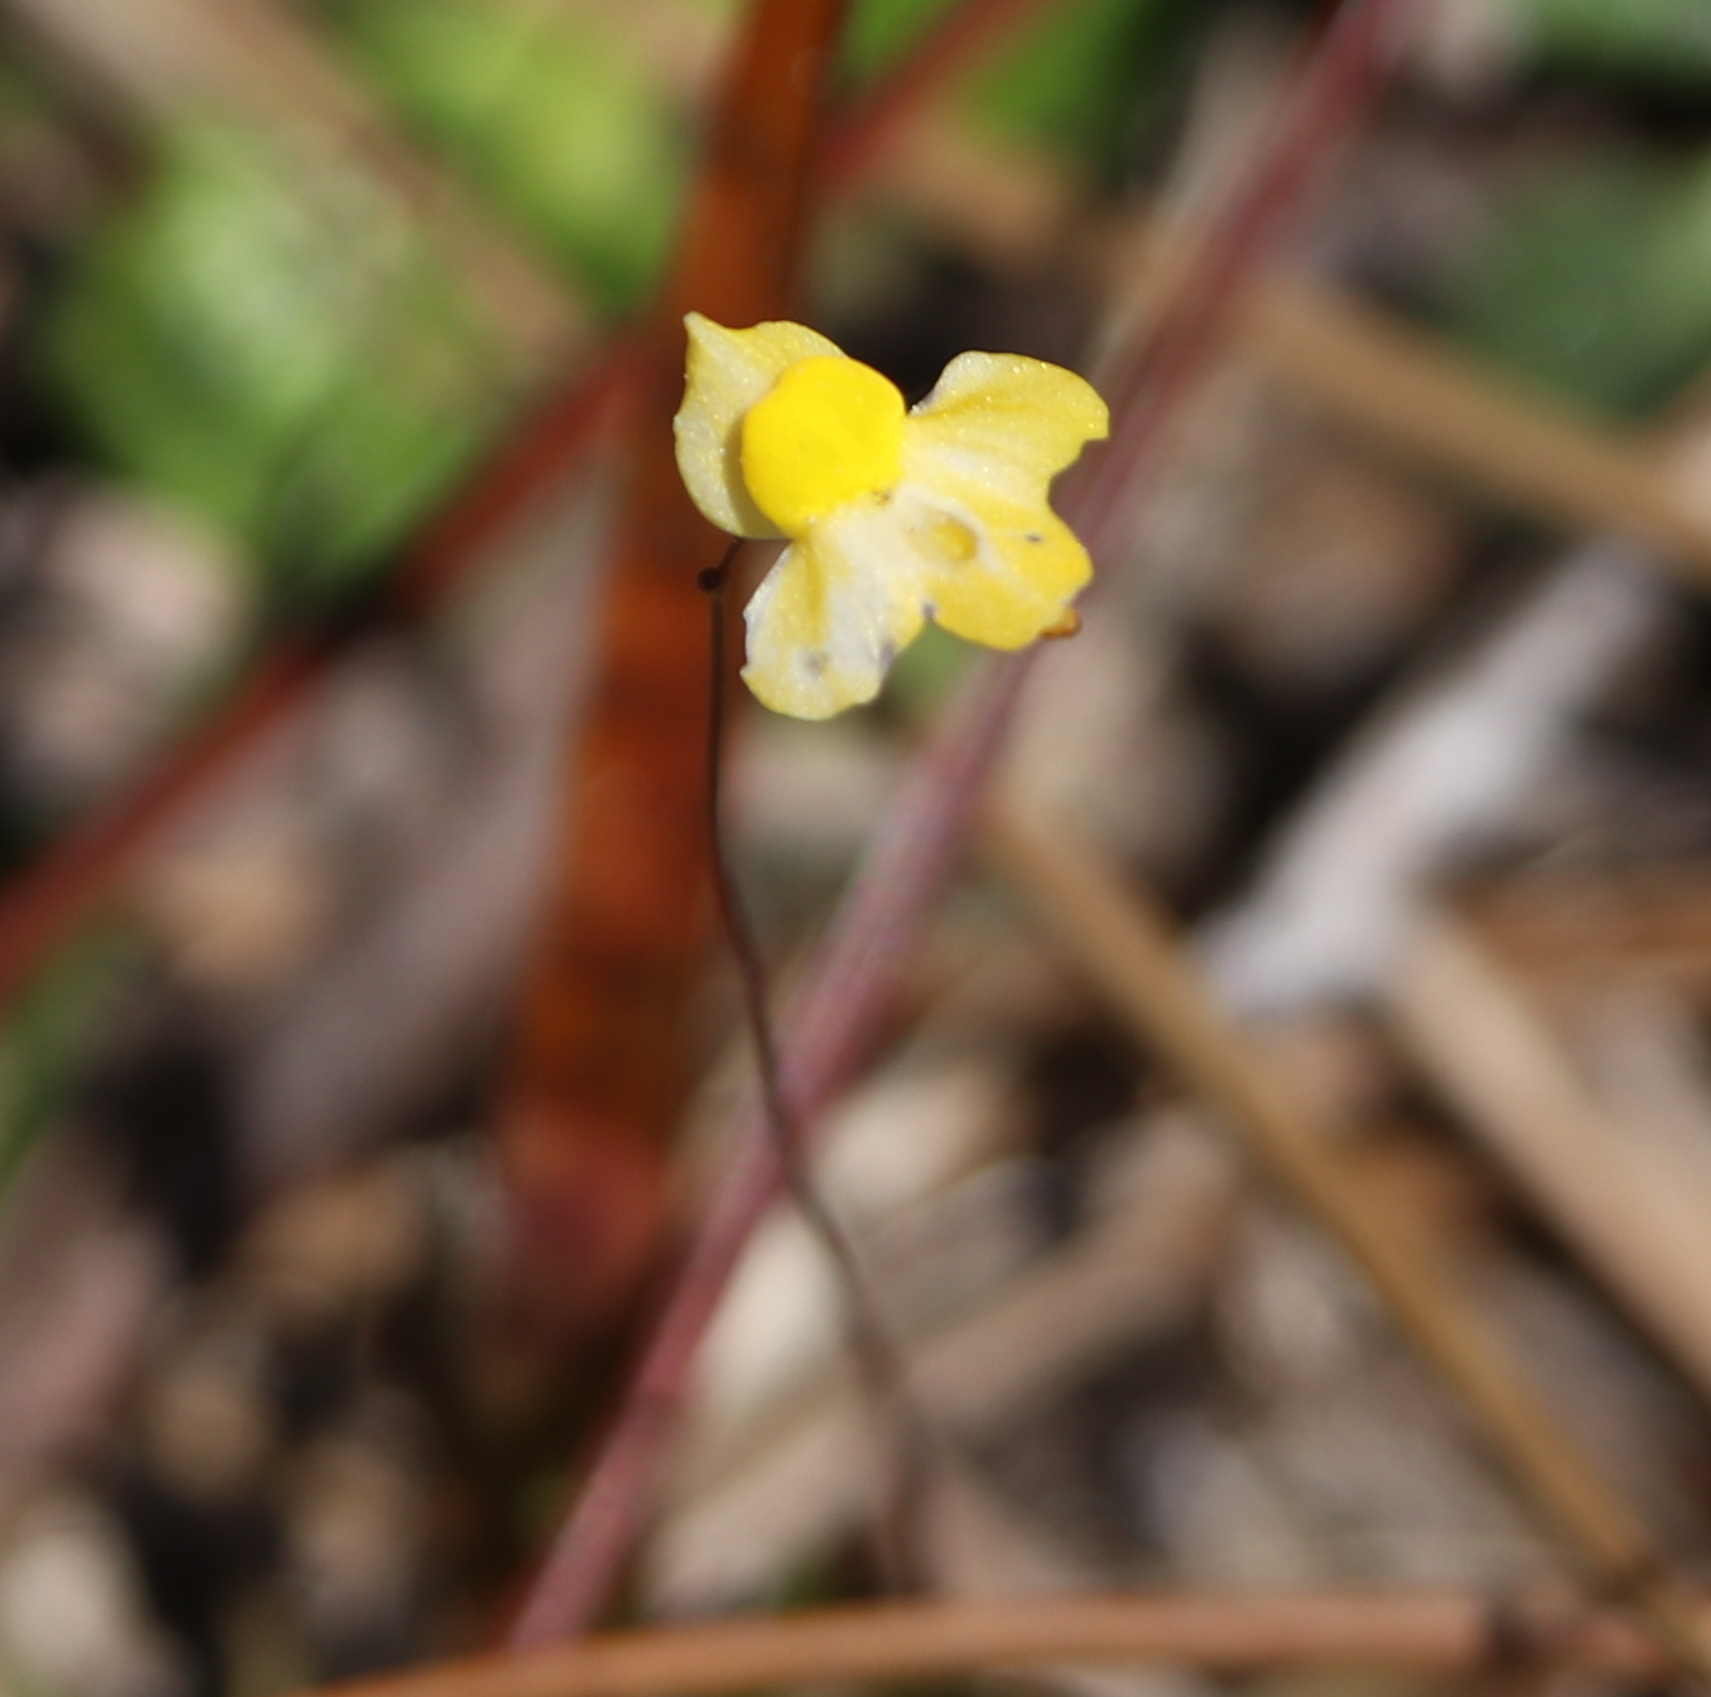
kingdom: Plantae
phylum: Tracheophyta
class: Magnoliopsida
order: Lamiales
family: Lentibulariaceae
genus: Utricularia
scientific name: Utricularia subulata
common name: Tiny bladderwort
